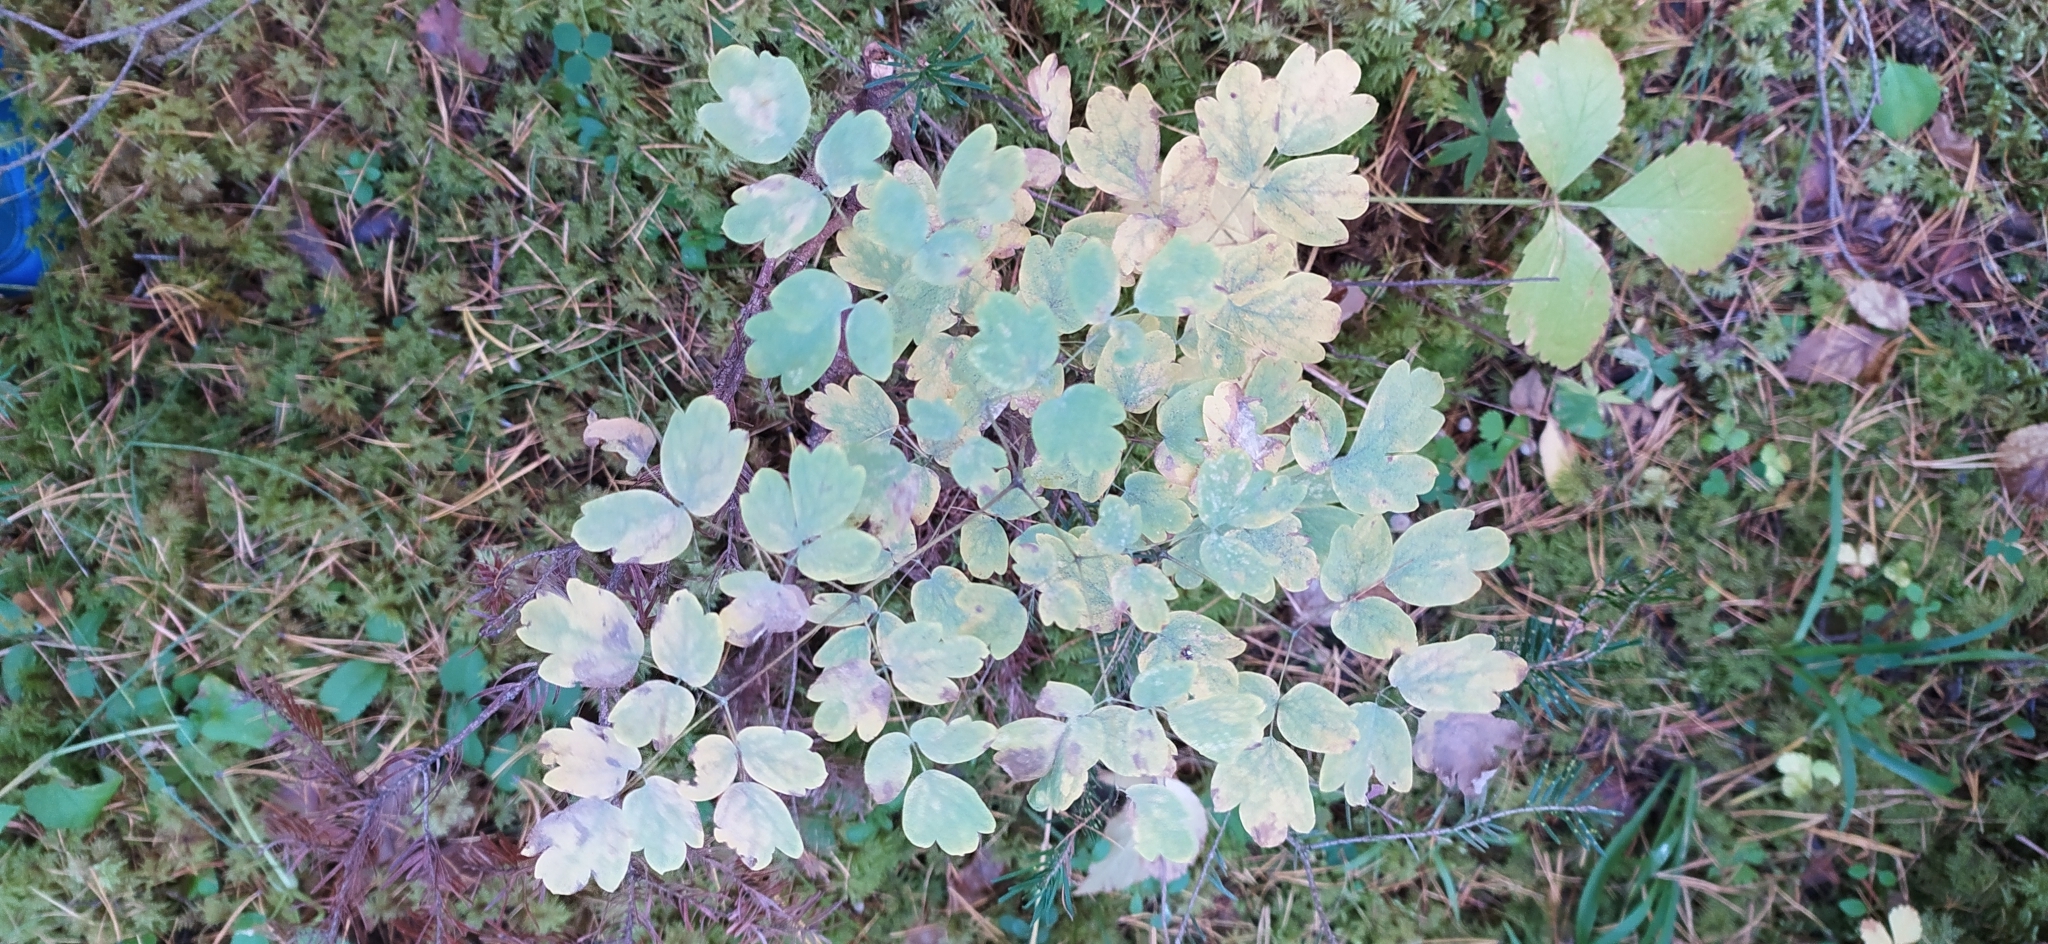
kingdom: Plantae
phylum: Tracheophyta
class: Magnoliopsida
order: Ranunculales
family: Ranunculaceae
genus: Thalictrum
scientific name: Thalictrum minus
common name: Lesser meadow-rue
